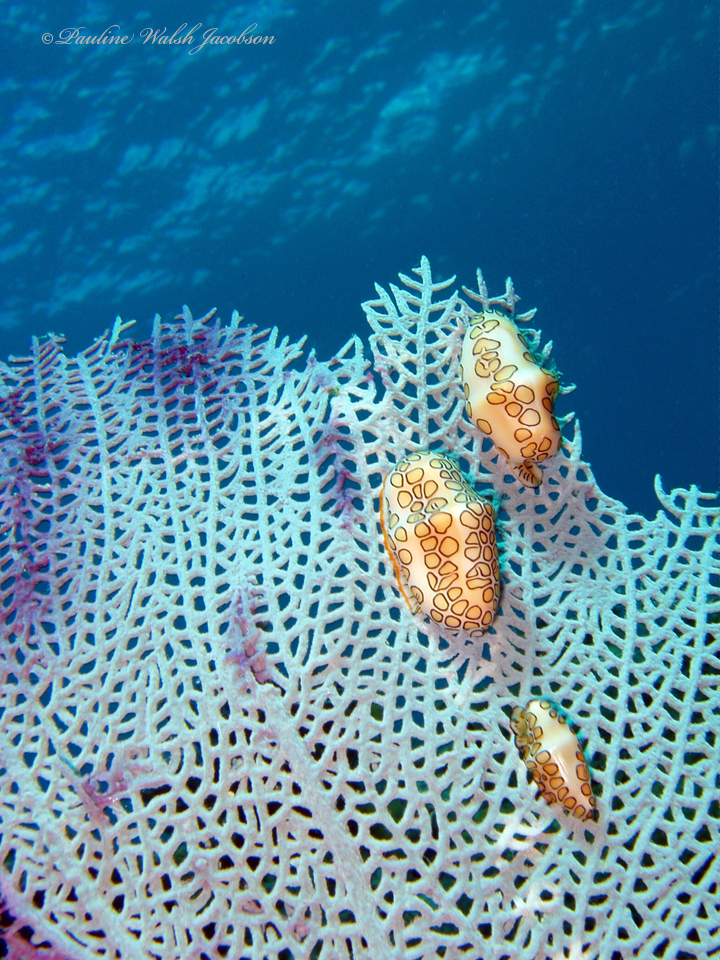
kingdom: Animalia
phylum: Mollusca
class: Gastropoda
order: Littorinimorpha
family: Ovulidae
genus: Cyphoma
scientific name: Cyphoma gibbosum
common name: Flamingo tongue
